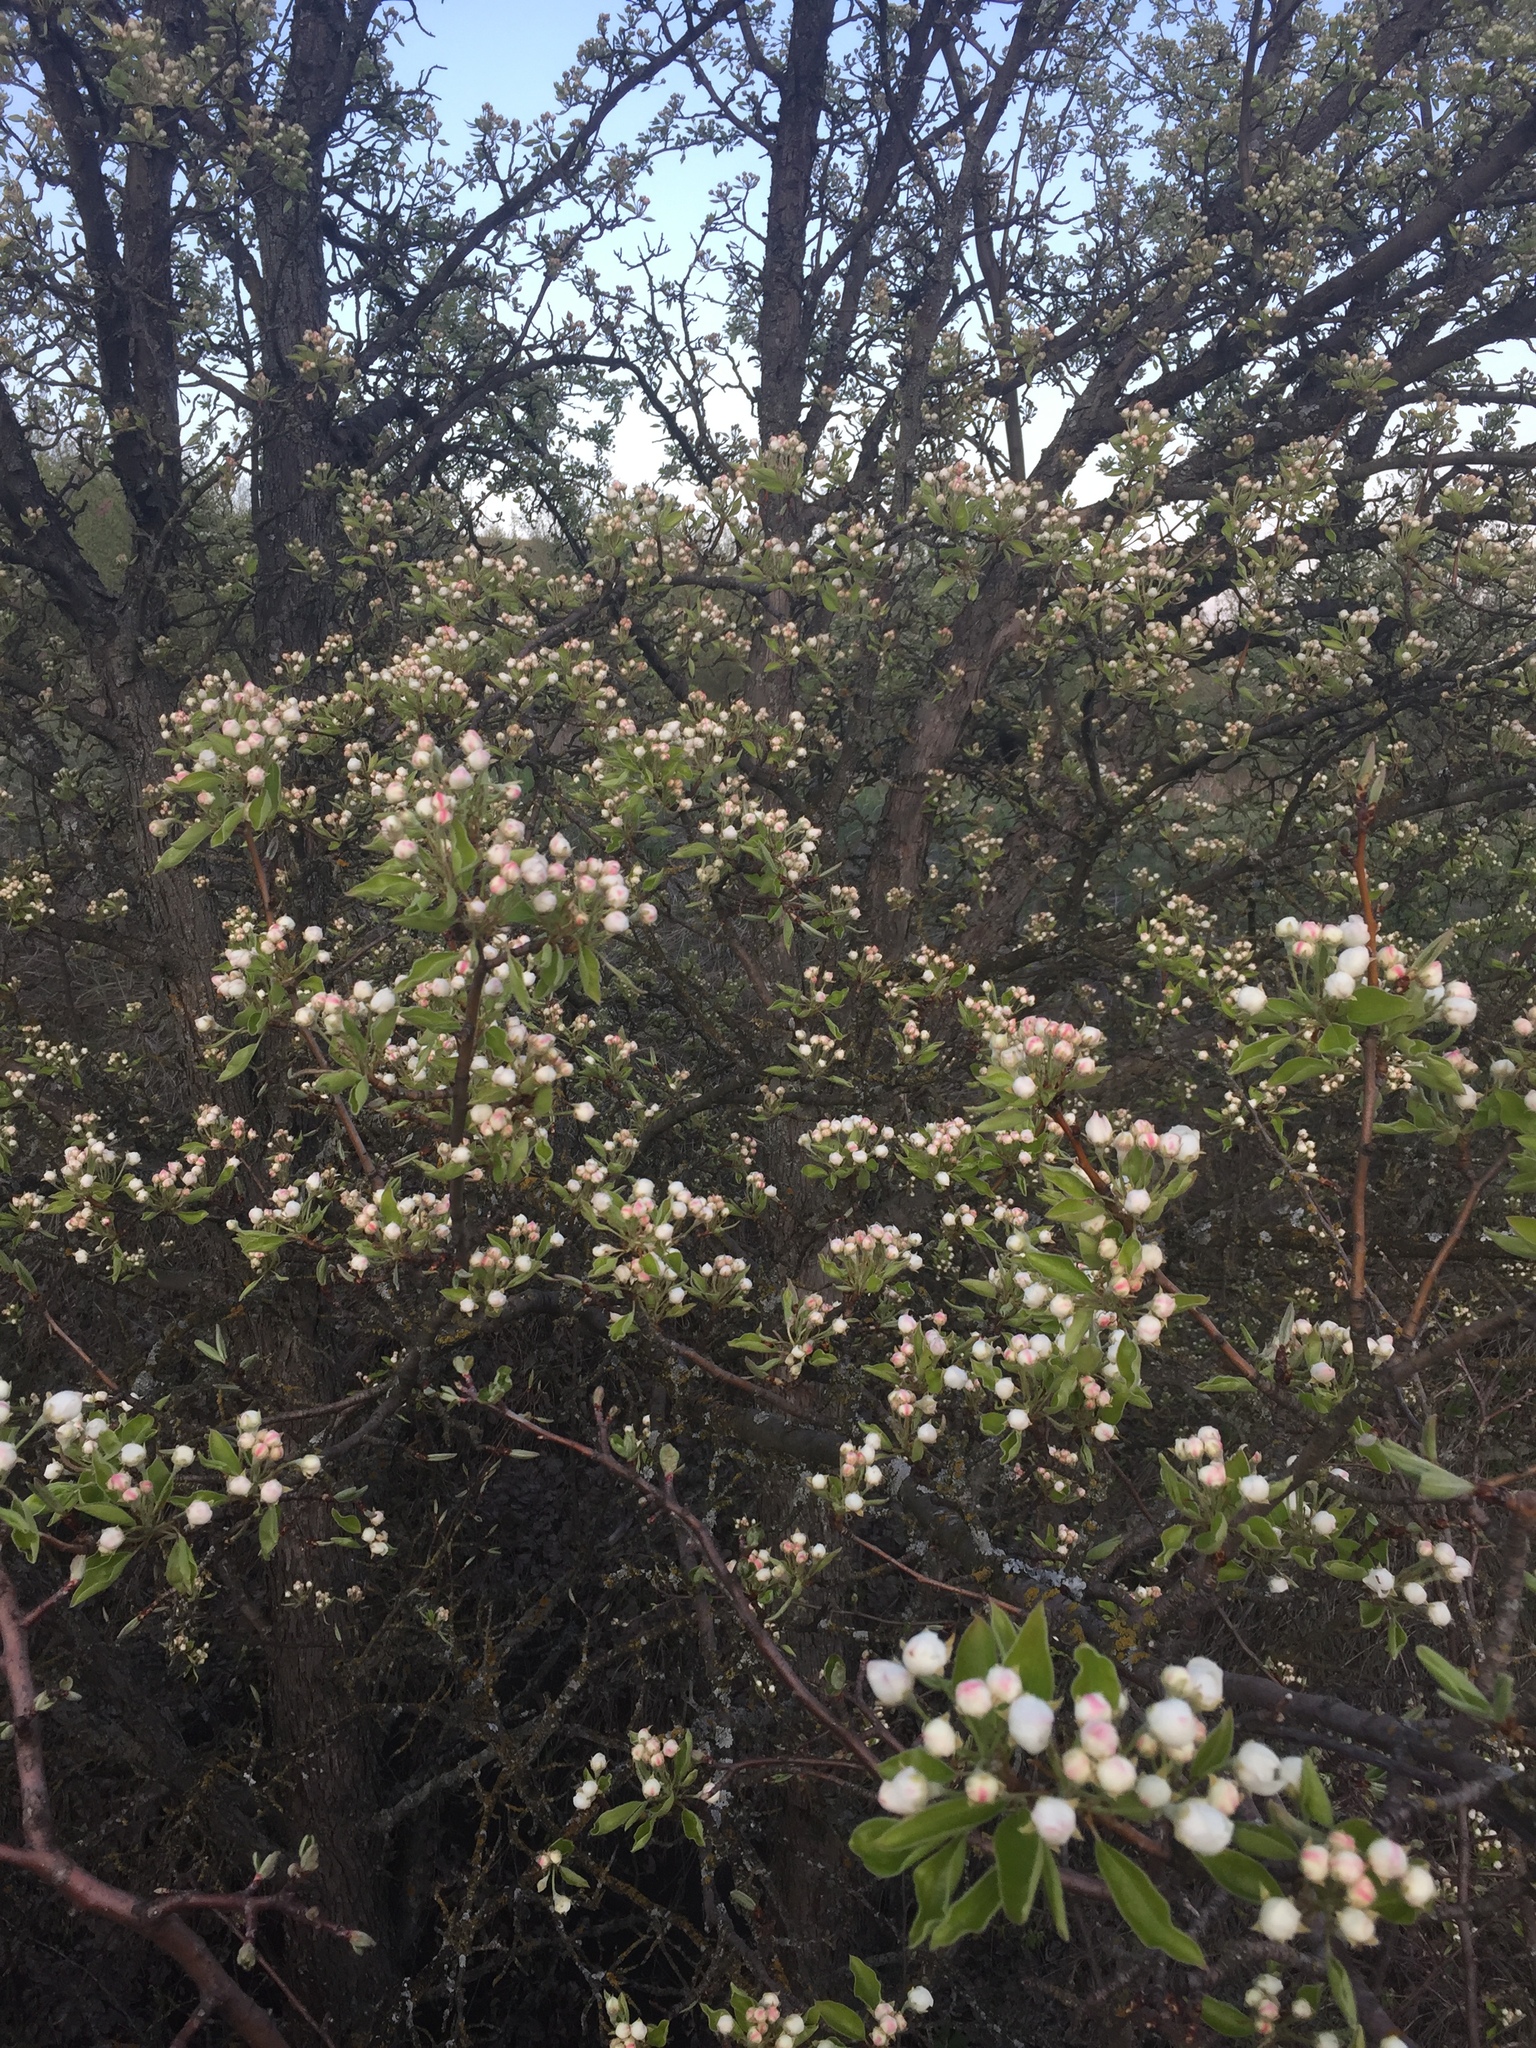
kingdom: Plantae
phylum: Tracheophyta
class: Magnoliopsida
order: Rosales
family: Rosaceae
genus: Pyrus
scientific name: Pyrus communis
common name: Pear
